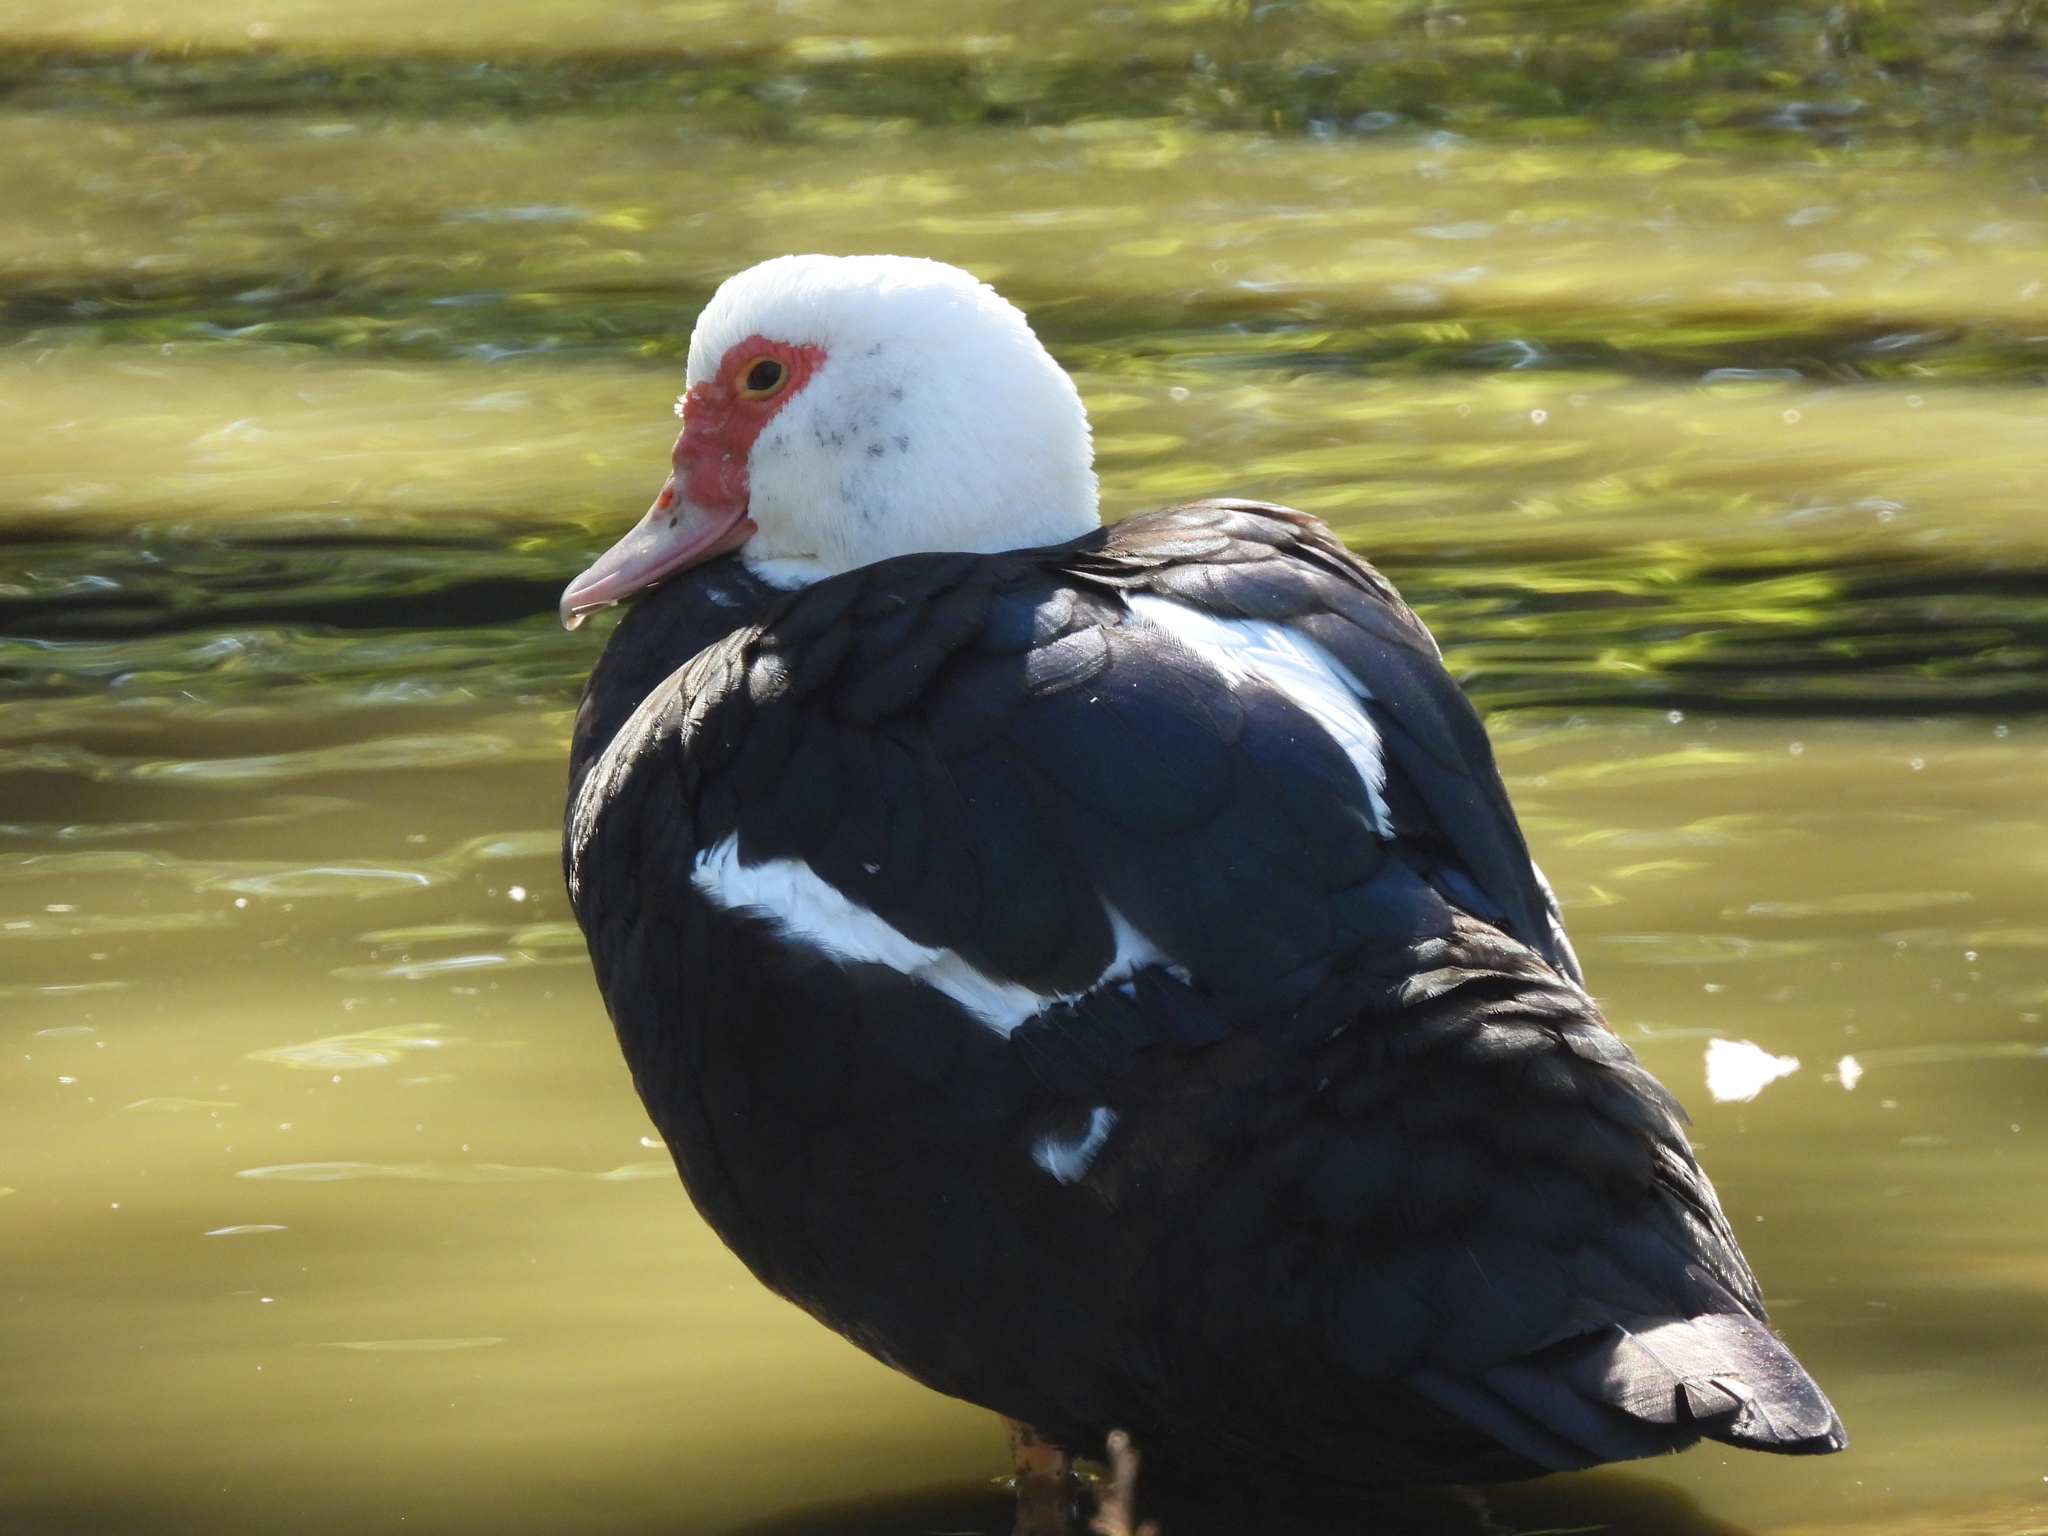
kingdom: Animalia
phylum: Chordata
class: Aves
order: Anseriformes
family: Anatidae
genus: Cairina
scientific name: Cairina moschata
